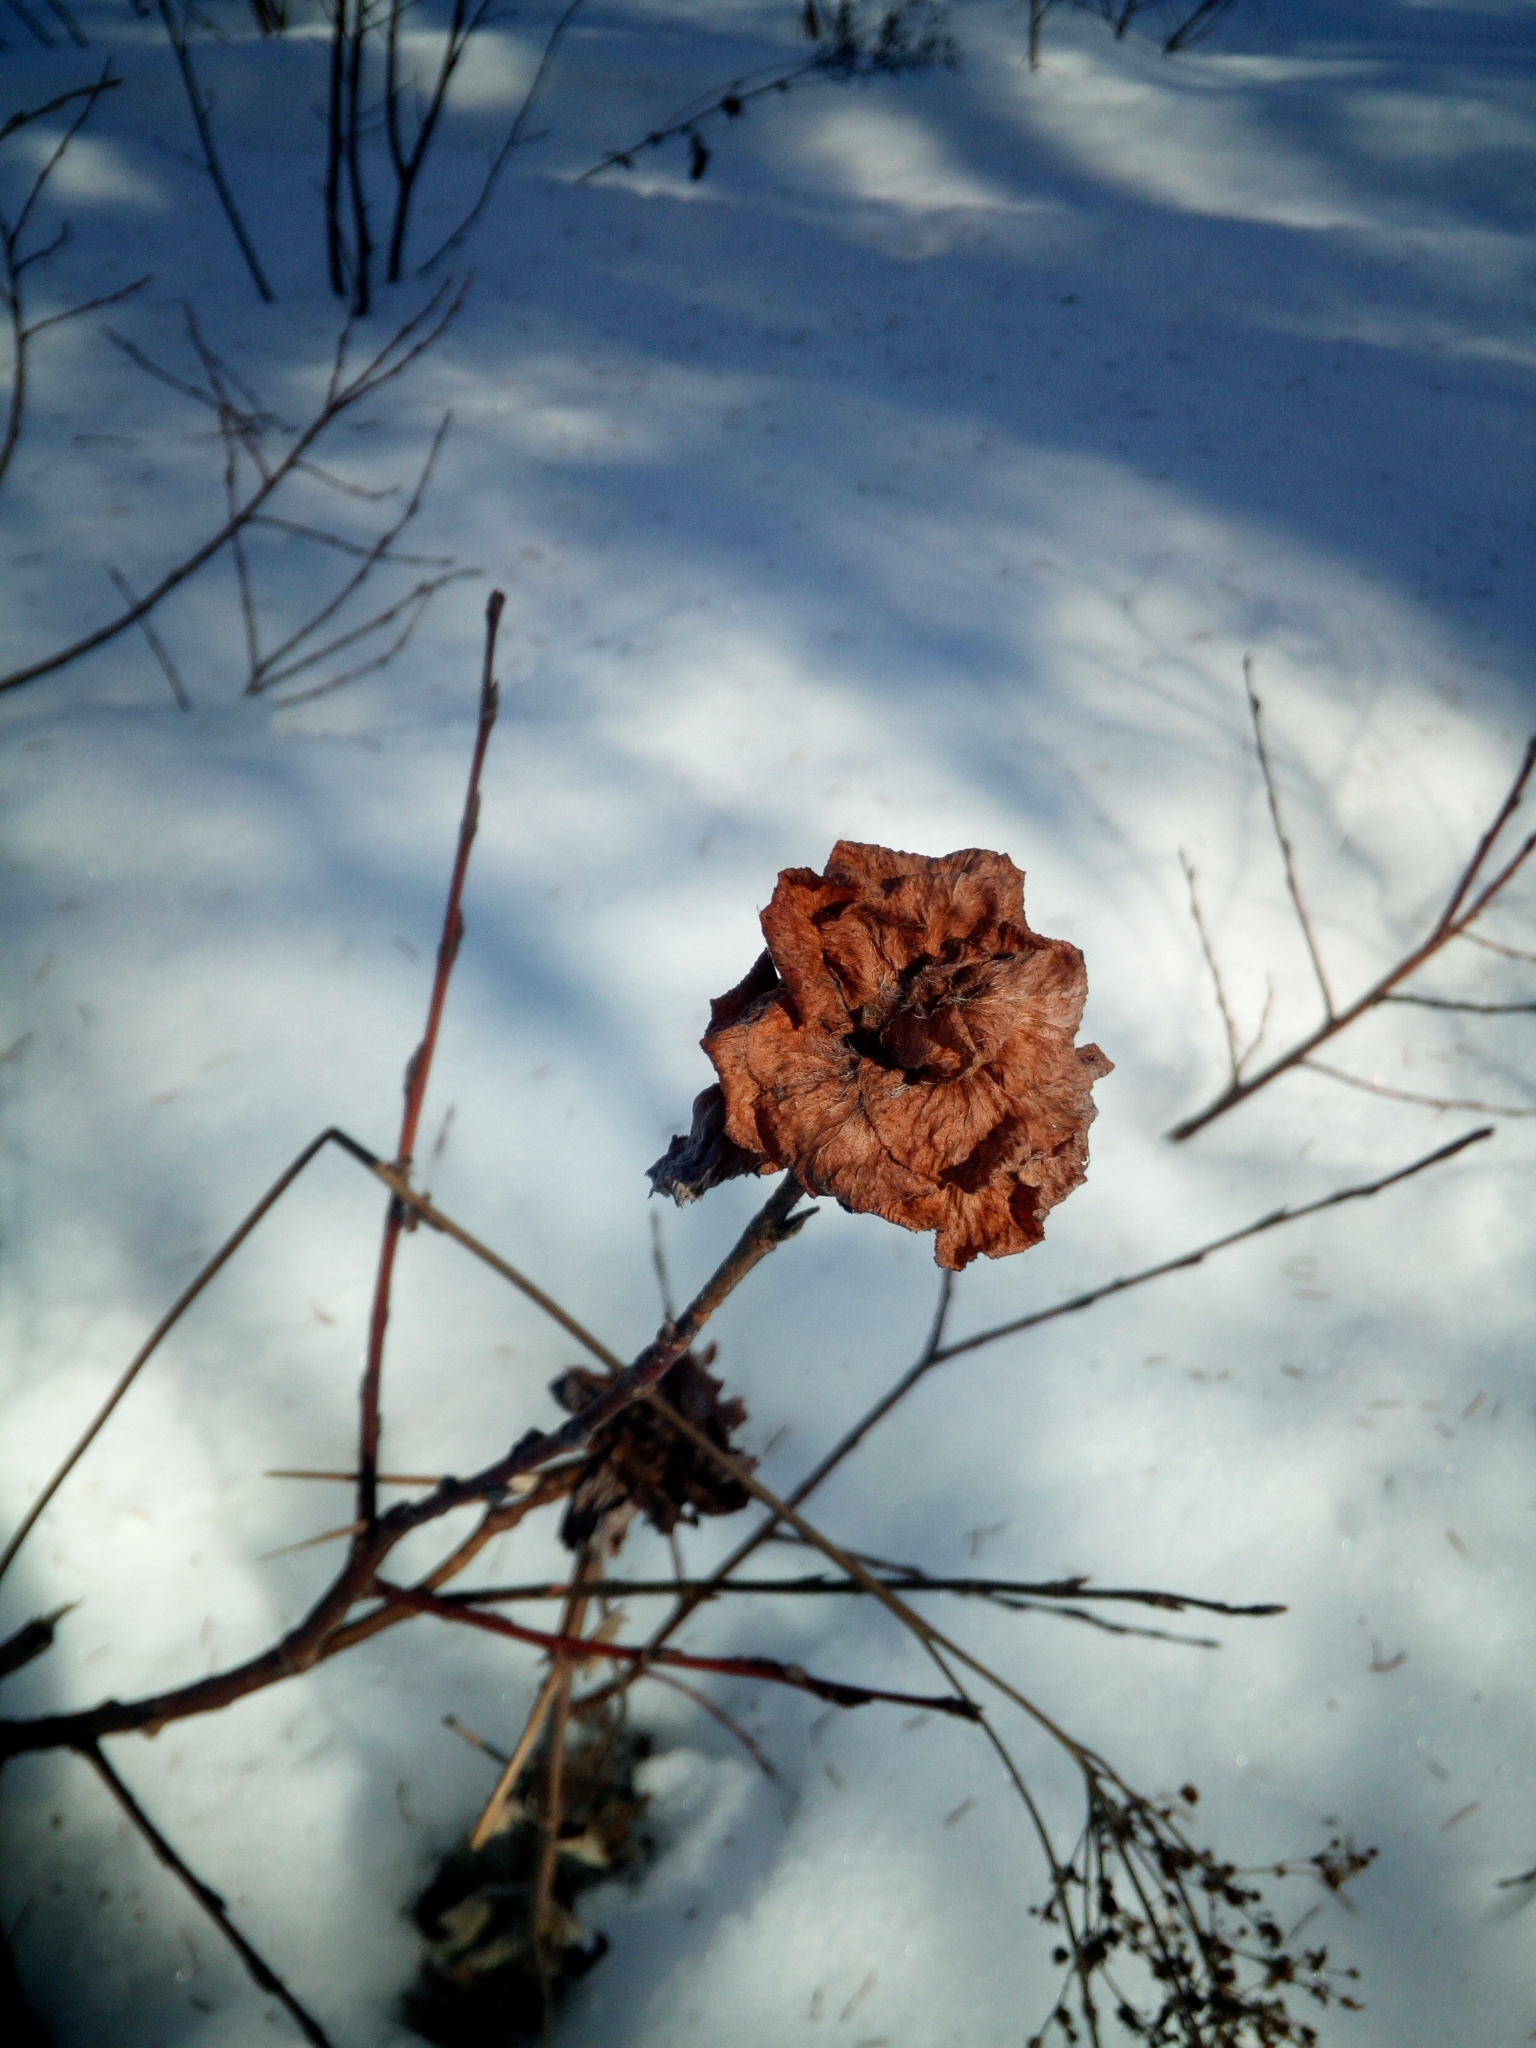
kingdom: Animalia
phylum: Arthropoda
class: Insecta
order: Diptera
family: Cecidomyiidae
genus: Rabdophaga
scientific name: Rabdophaga rosaria
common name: Willow rose gall midge
